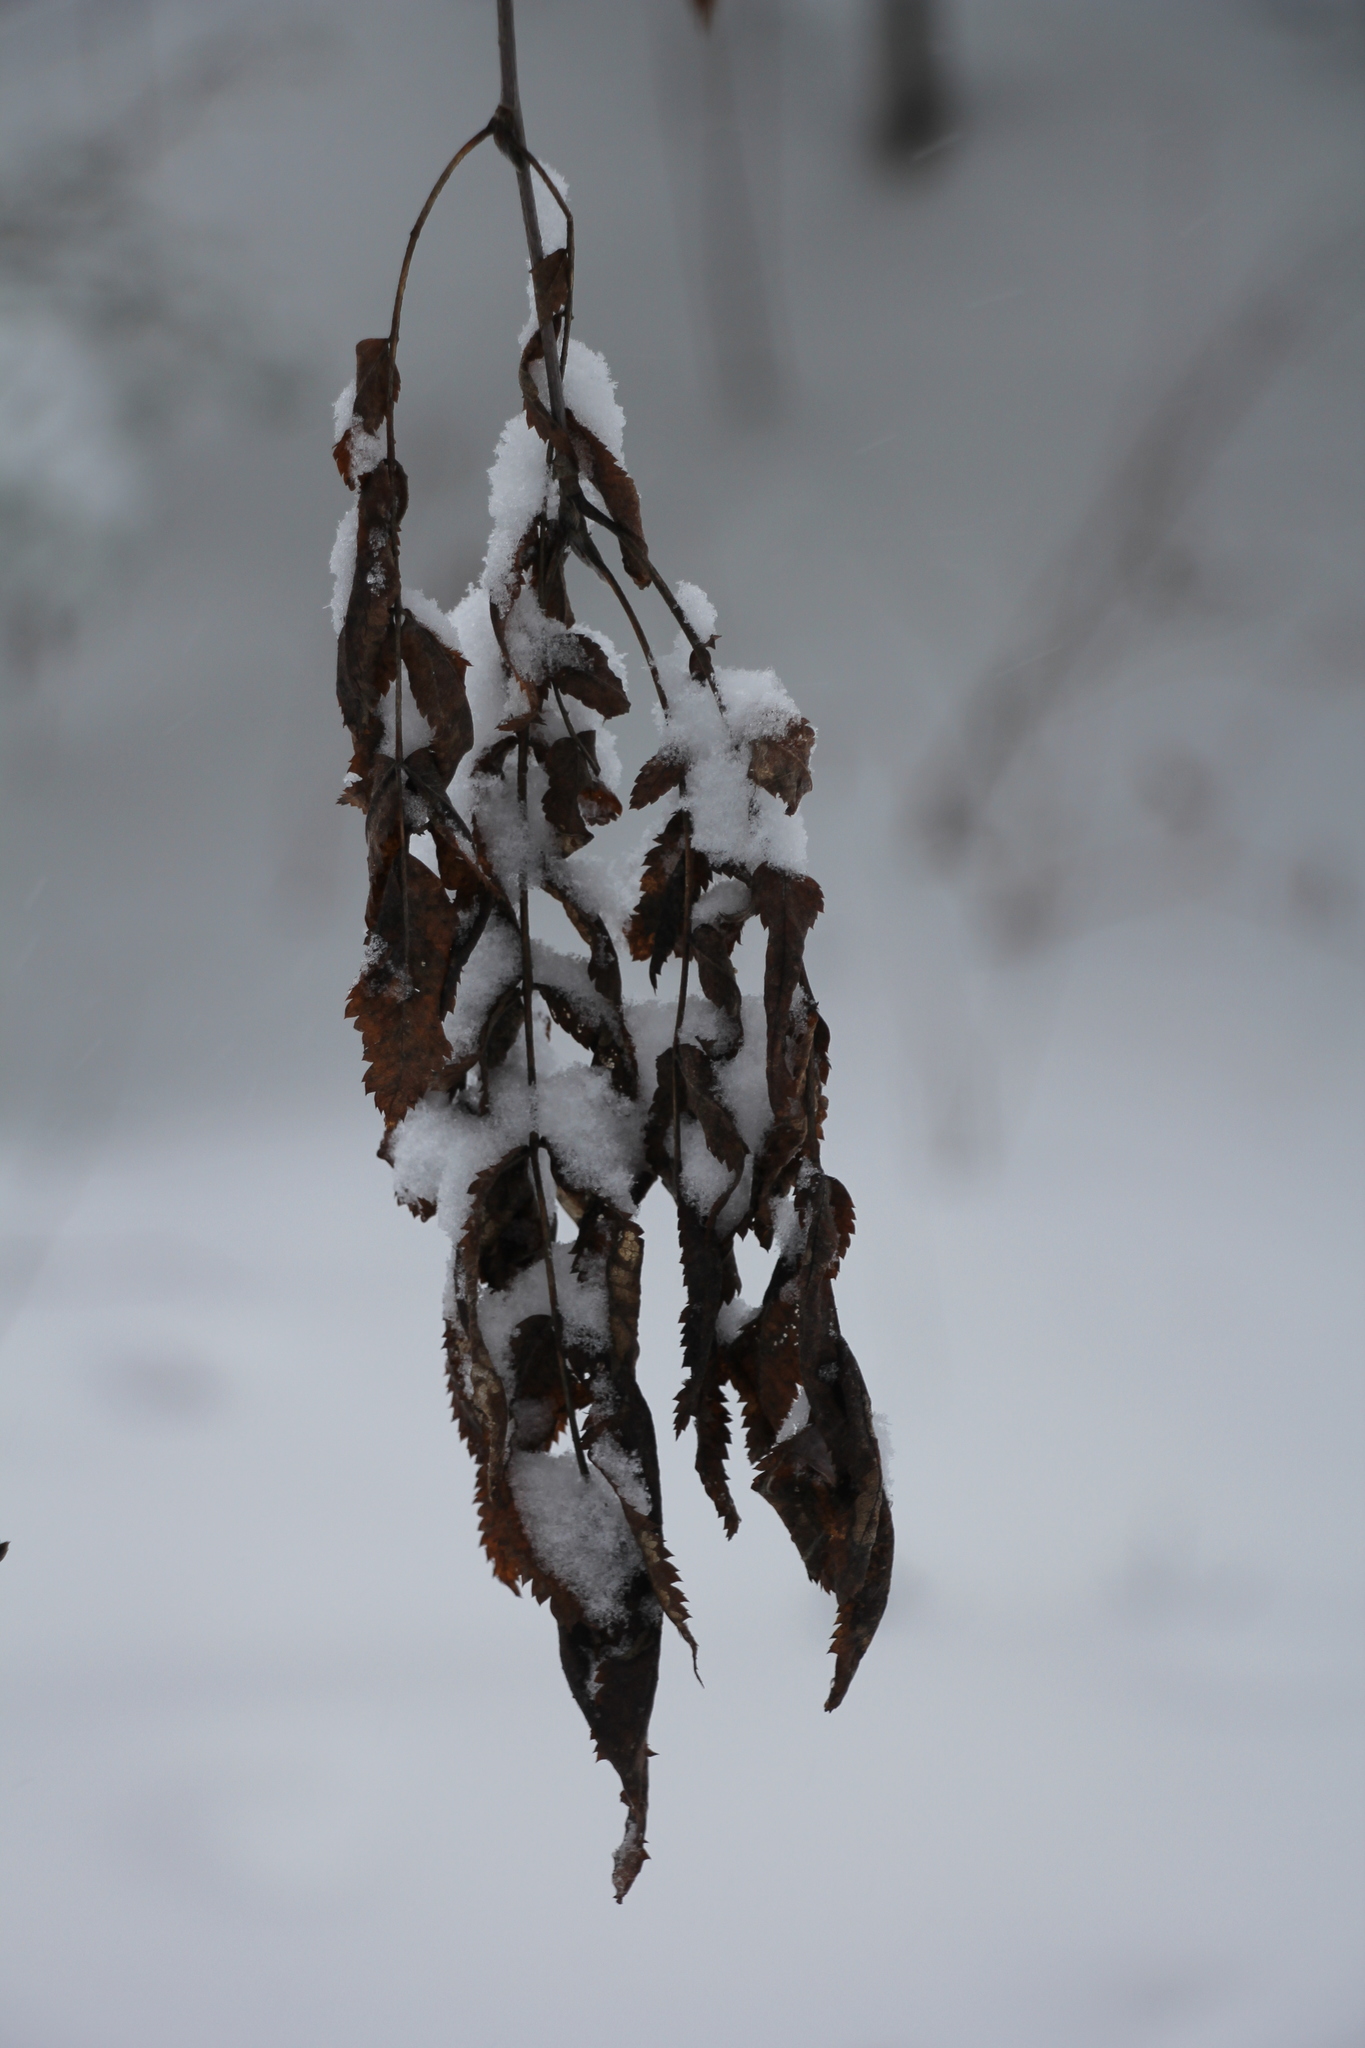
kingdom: Plantae
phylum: Tracheophyta
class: Magnoliopsida
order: Rosales
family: Rosaceae
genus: Sorbus
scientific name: Sorbus aucuparia
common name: Rowan
